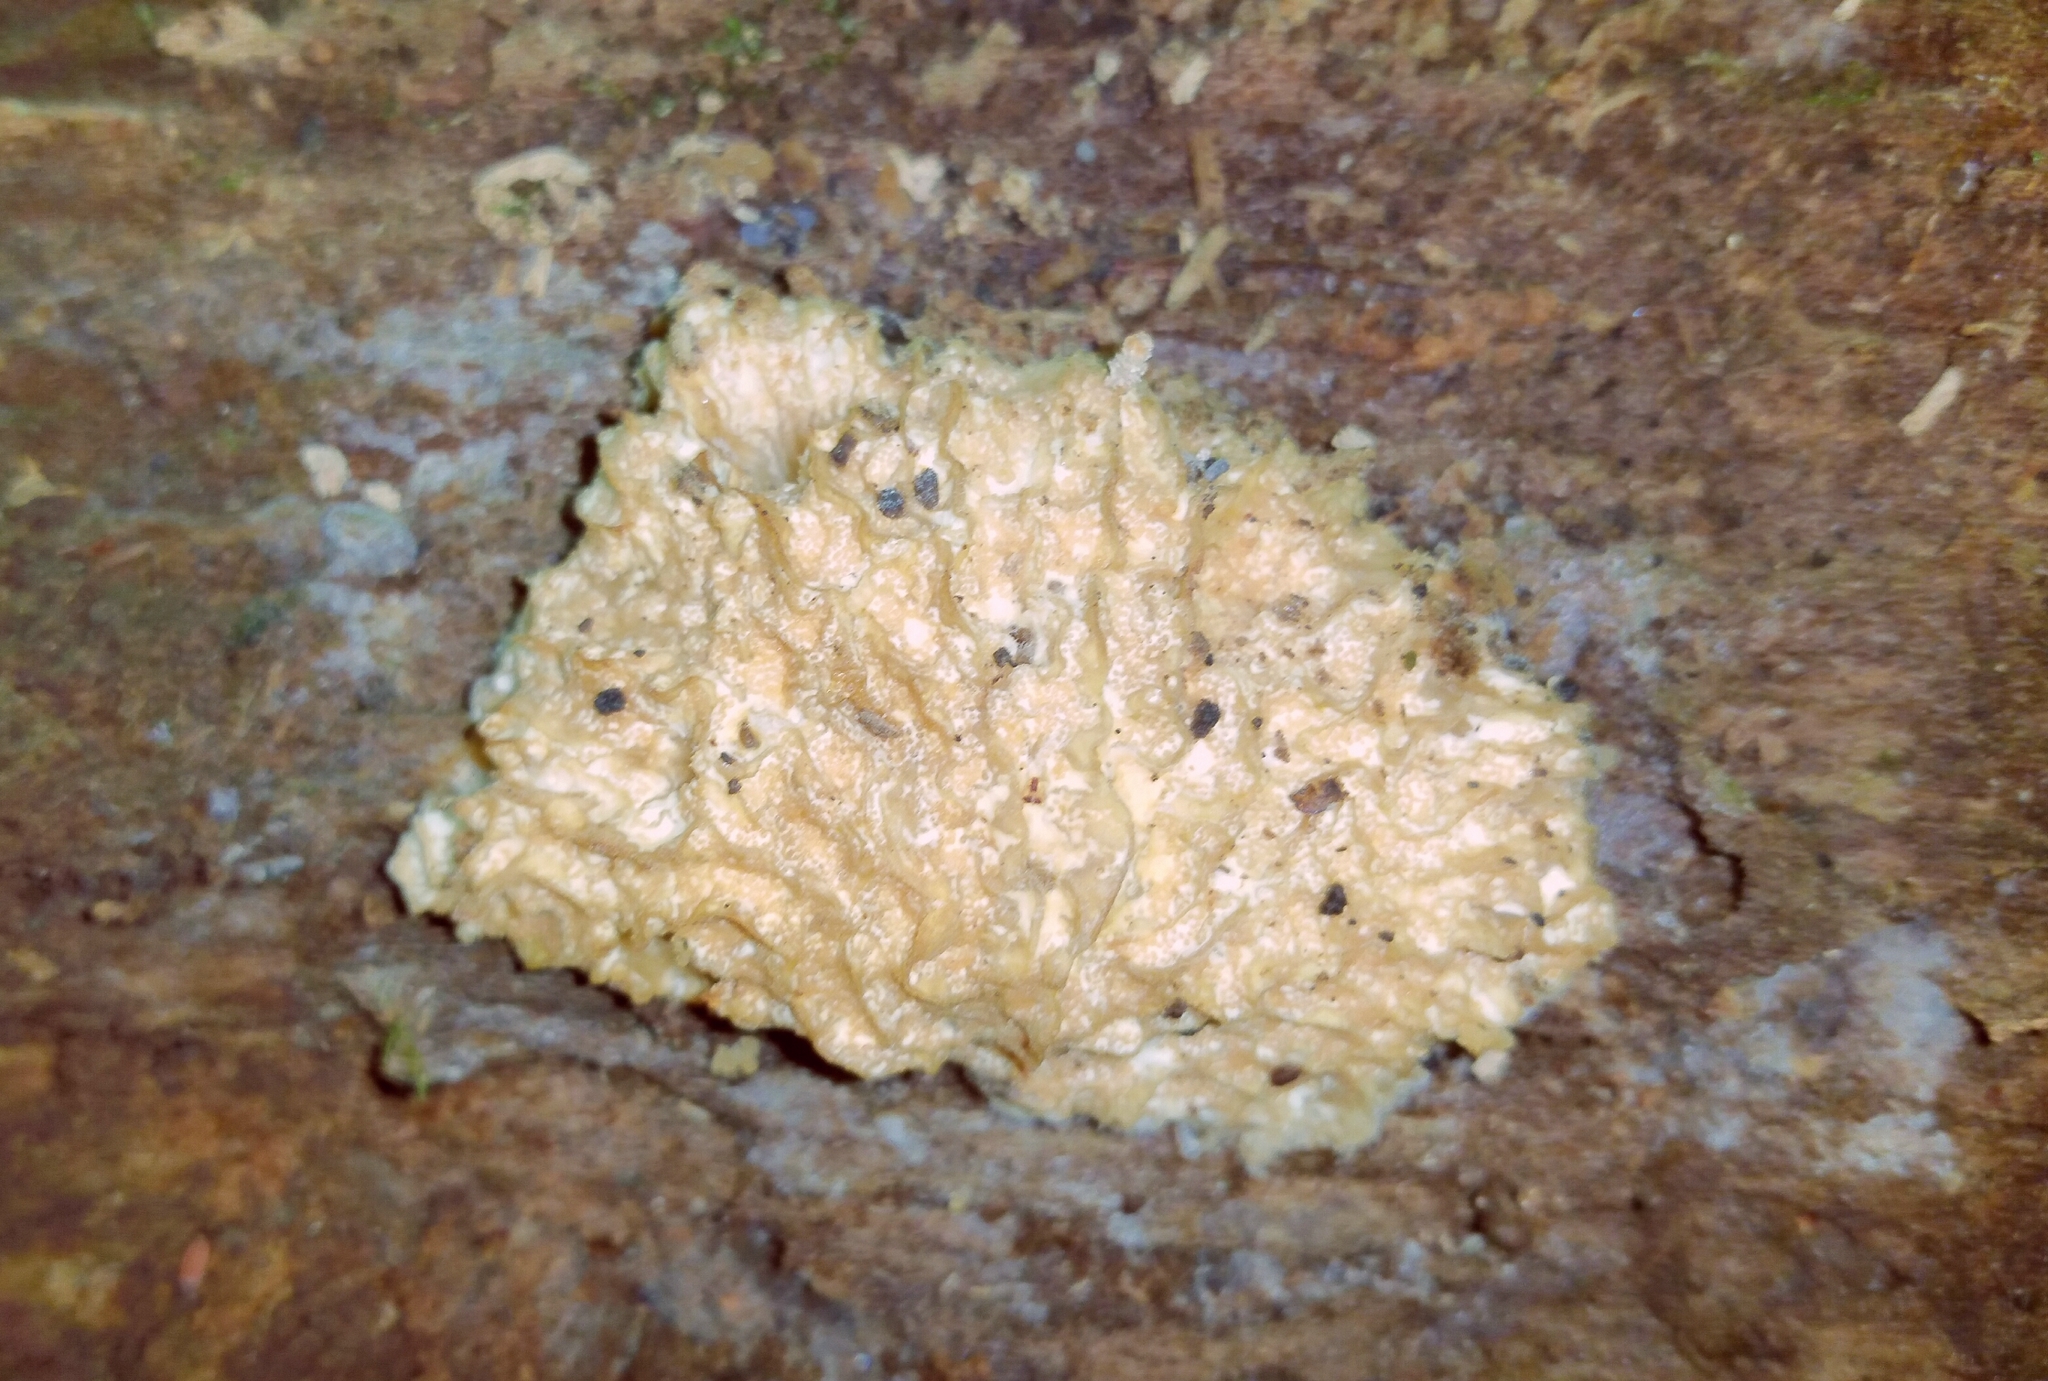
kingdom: Fungi
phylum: Ascomycota
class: Sordariomycetes
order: Hypocreales
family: Bionectriaceae
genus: Nectriopsis
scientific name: Nectriopsis tremellicola
